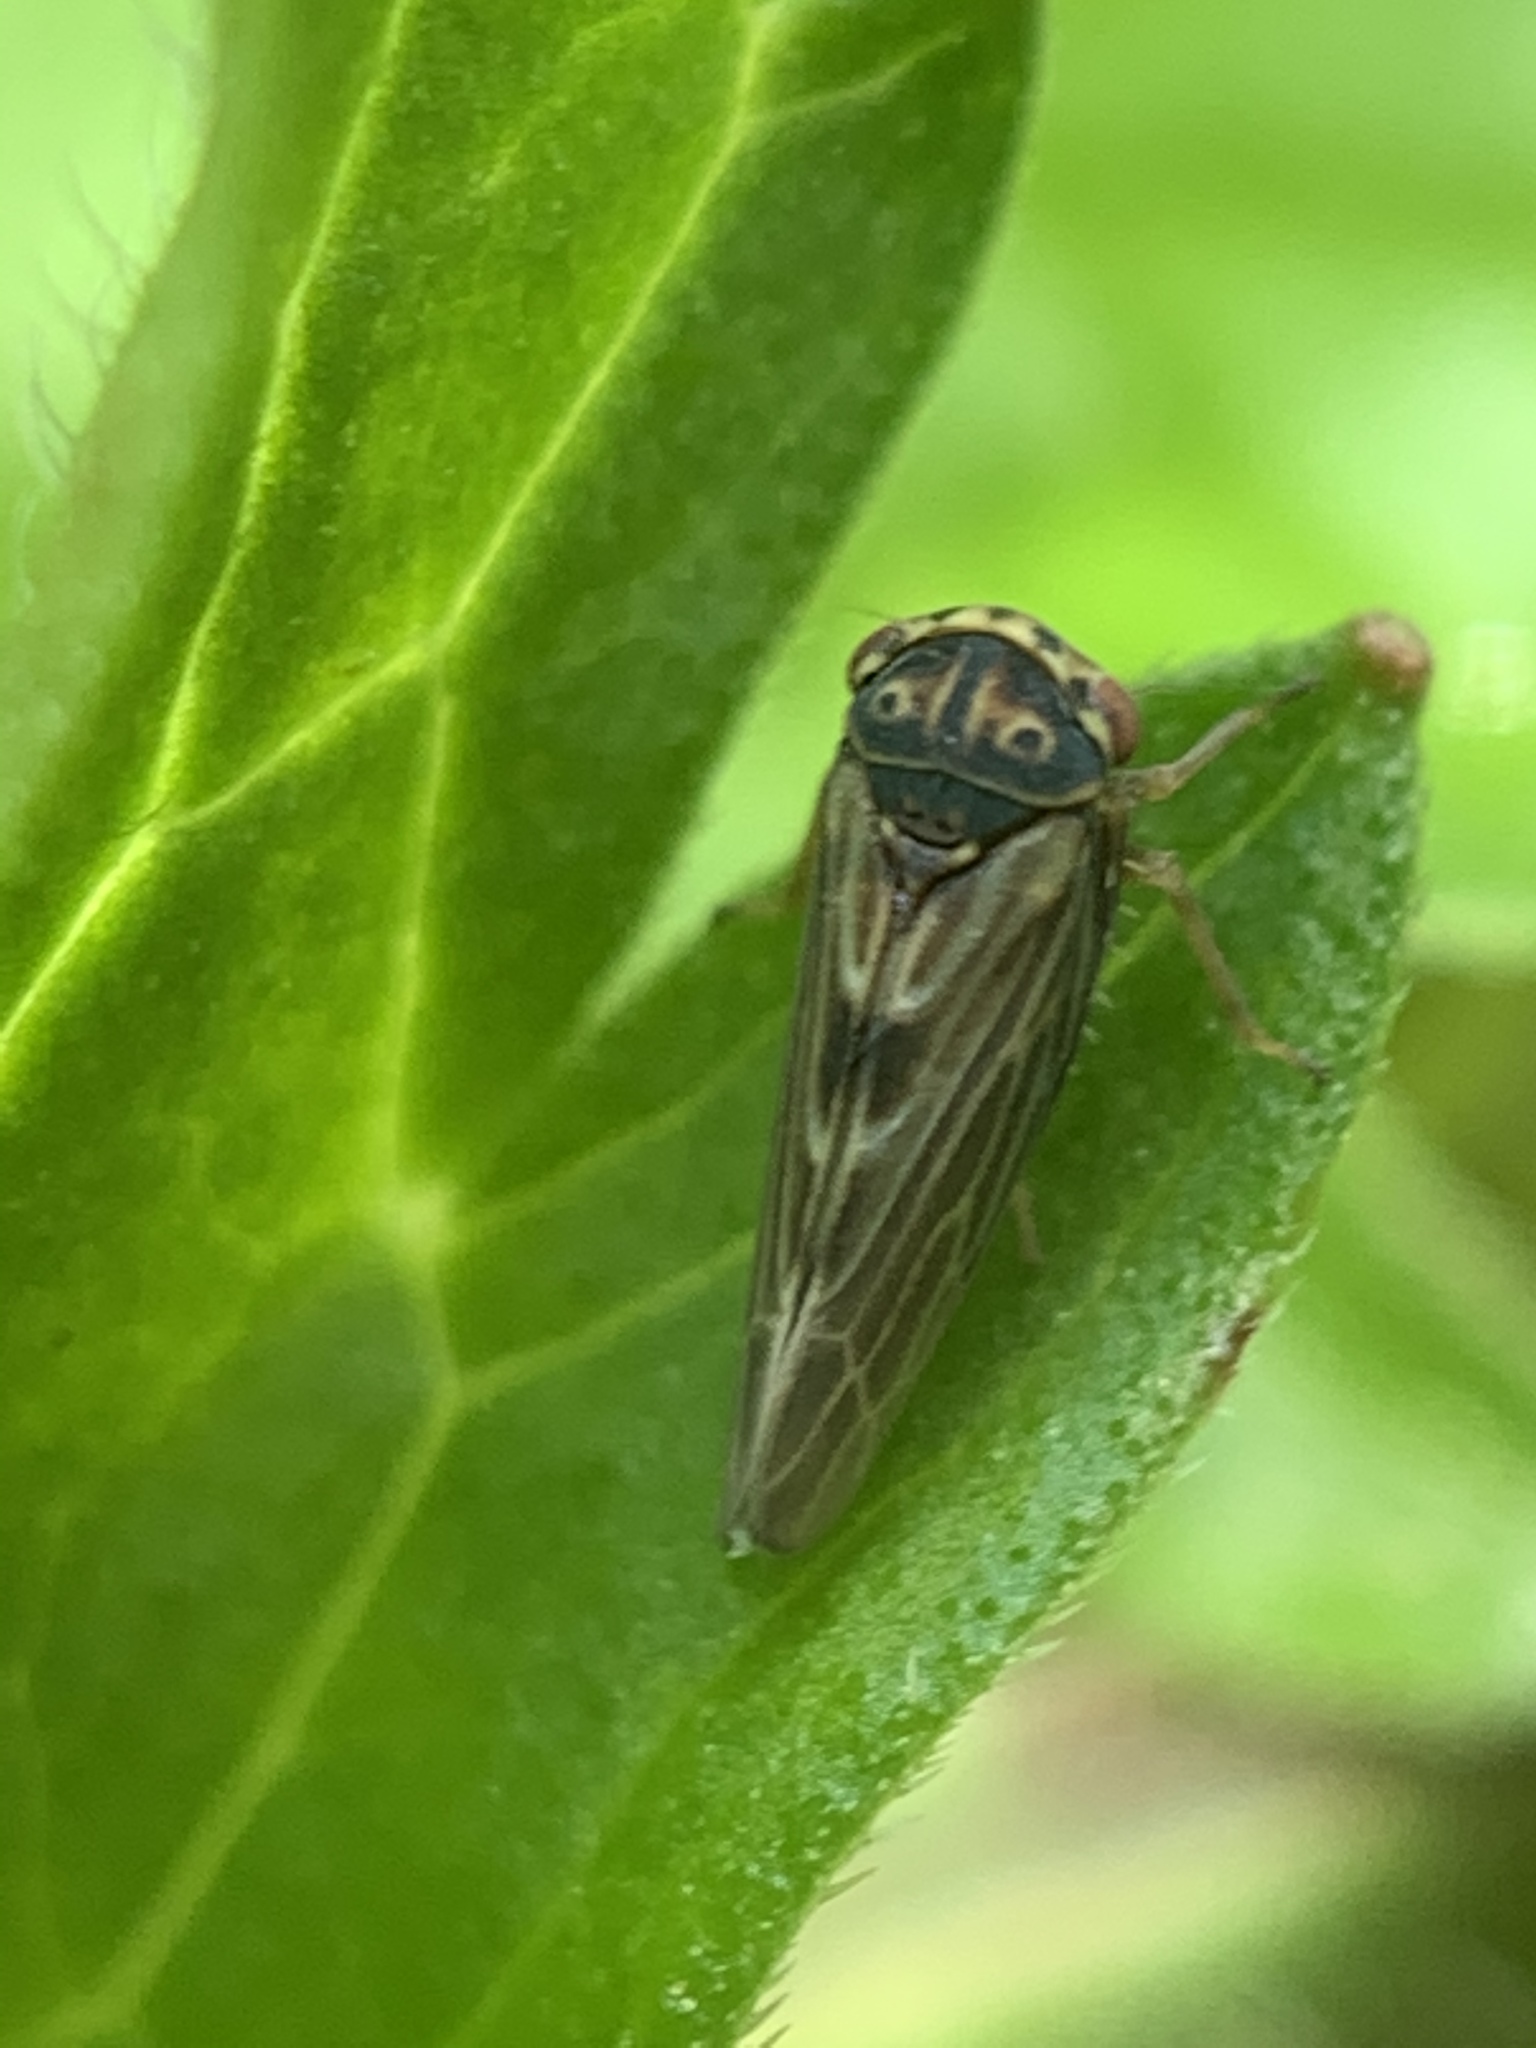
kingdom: Animalia
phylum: Arthropoda
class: Insecta
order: Hemiptera
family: Cicadellidae
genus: Agalliopsis
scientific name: Agalliopsis novella
